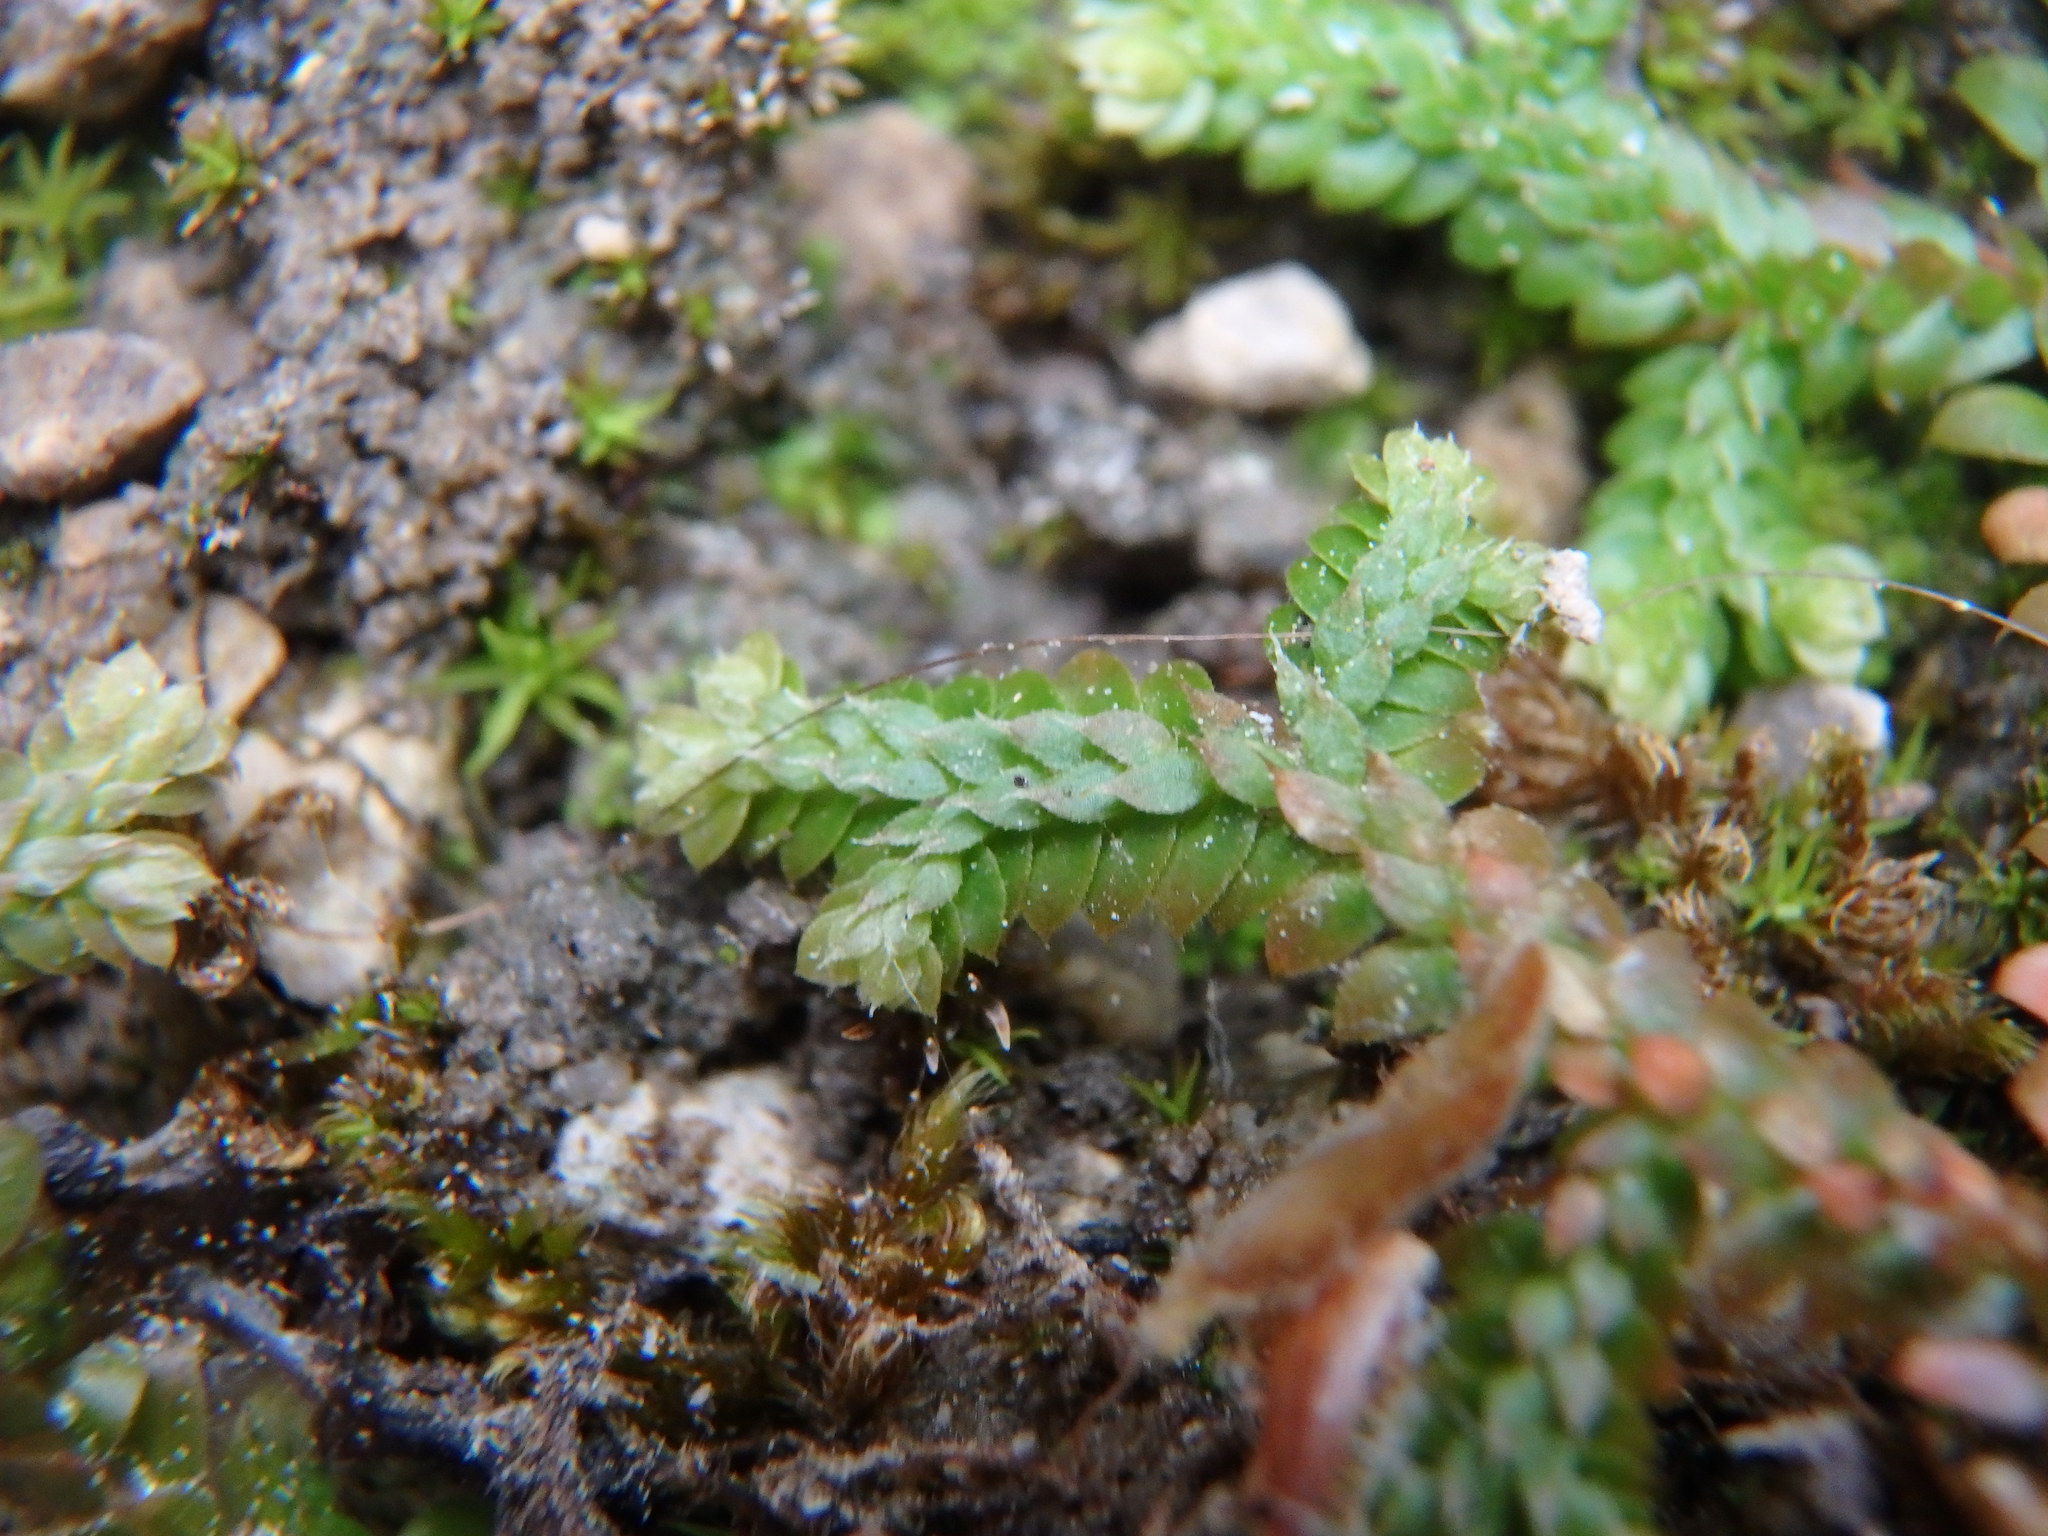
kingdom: Plantae
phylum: Tracheophyta
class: Lycopodiopsida
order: Selaginellales
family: Selaginellaceae
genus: Selaginella
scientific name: Selaginella denticulata
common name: Toothed-leaved clubmoss
